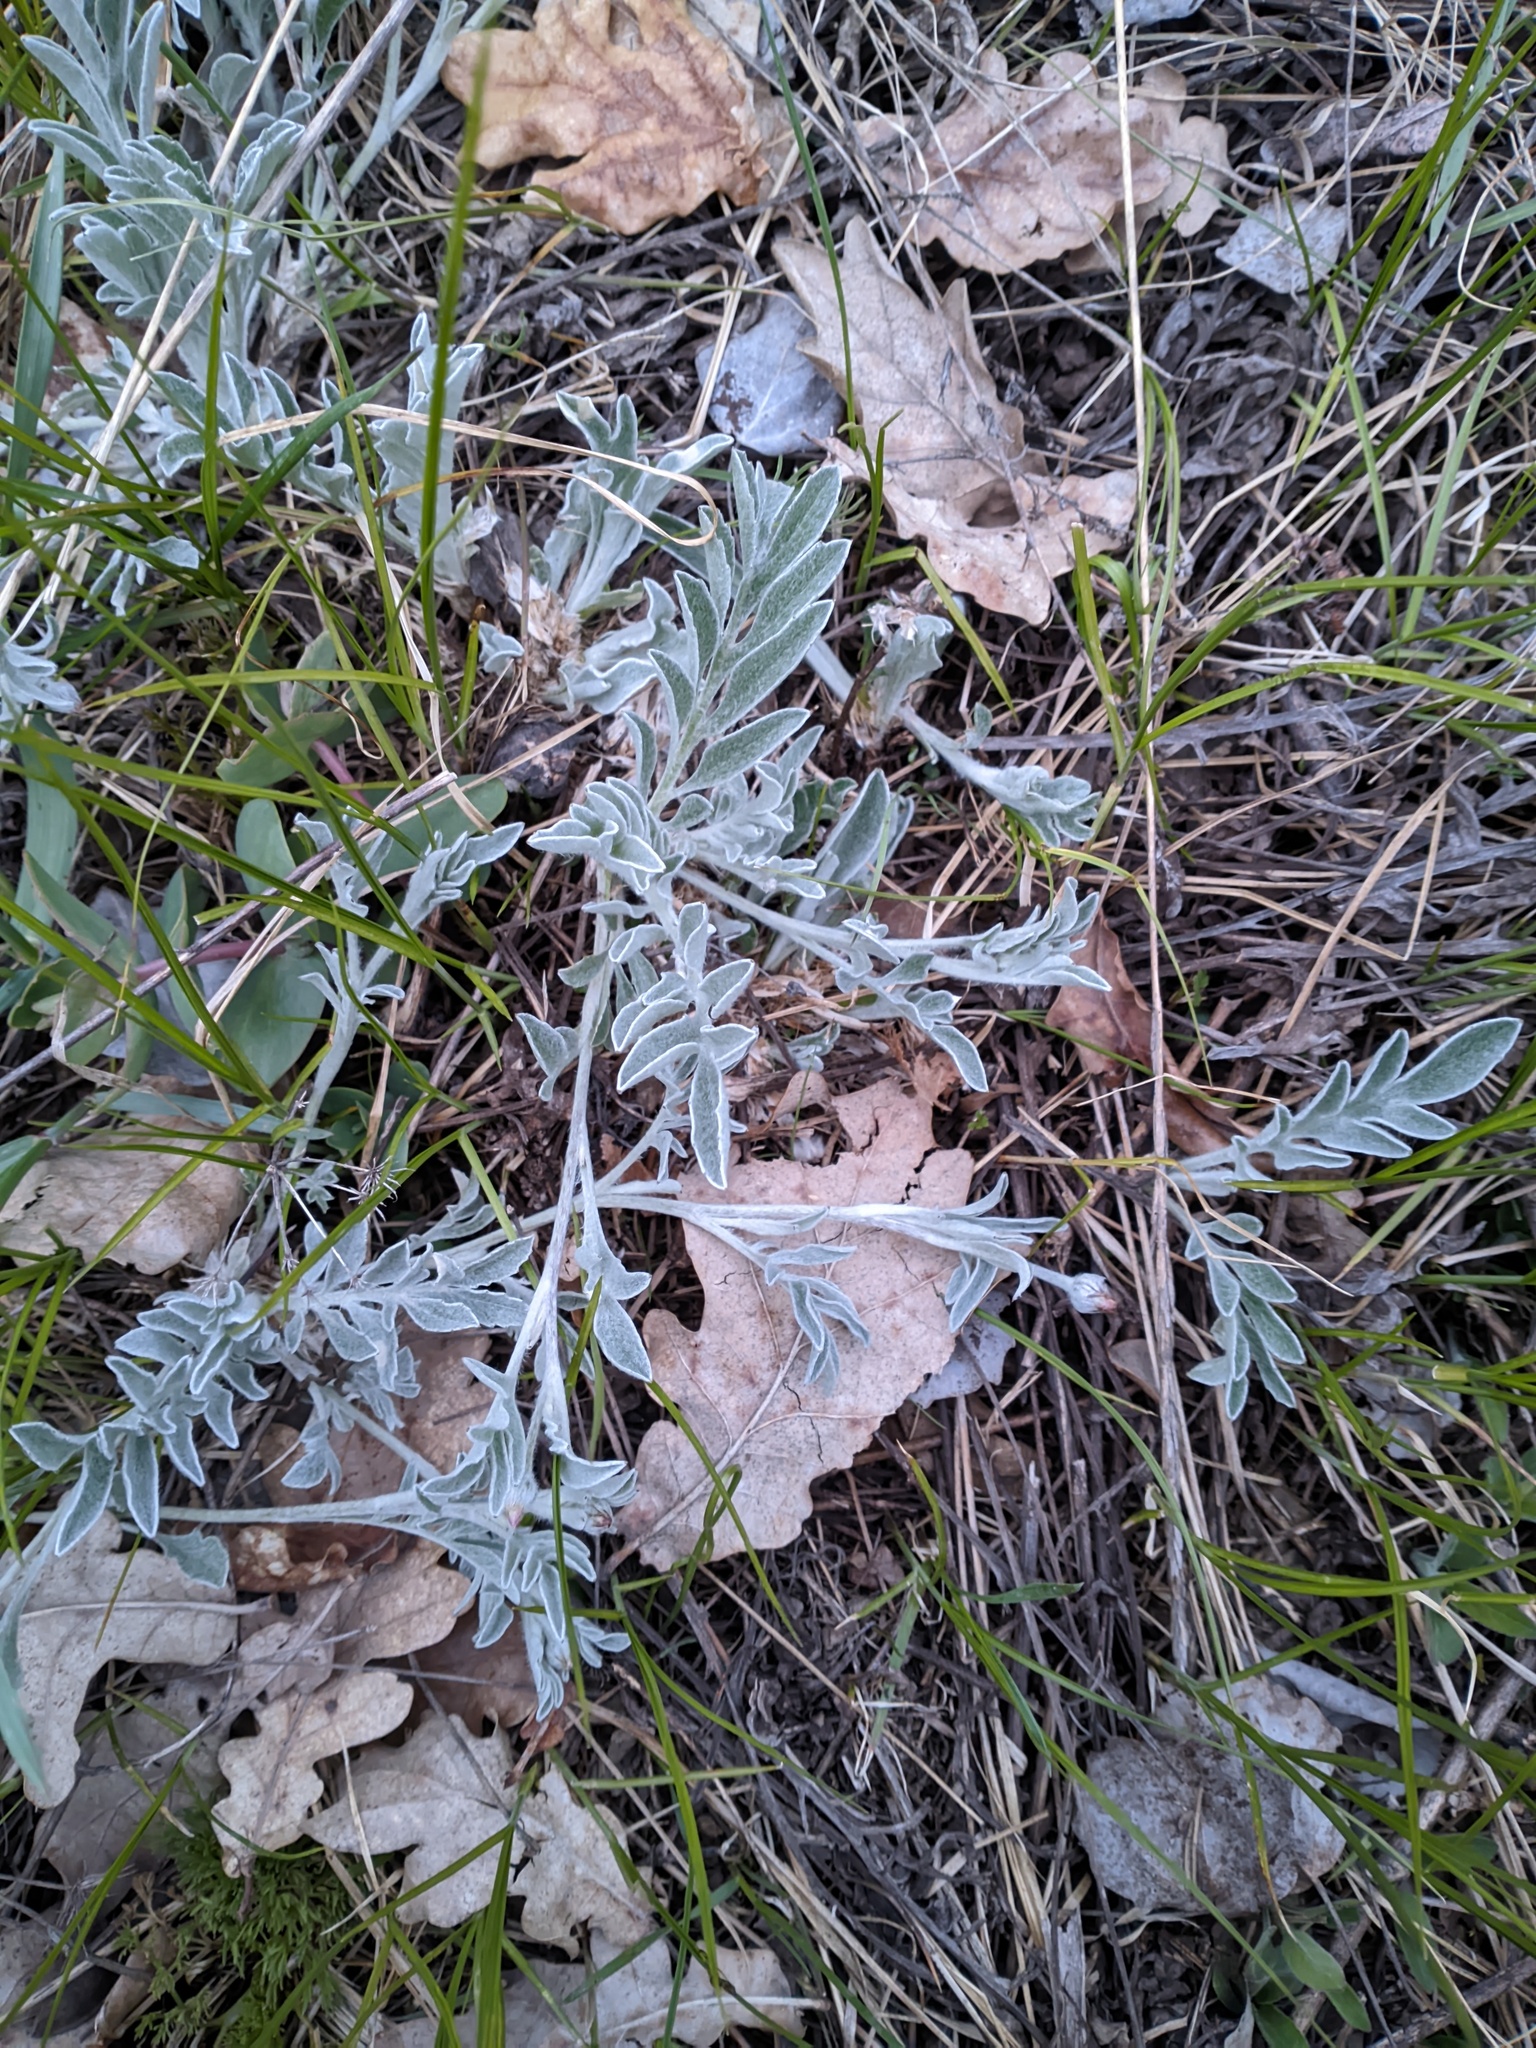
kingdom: Plantae
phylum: Tracheophyta
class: Magnoliopsida
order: Asterales
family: Asteraceae
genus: Psephellus
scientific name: Psephellus sumensis
